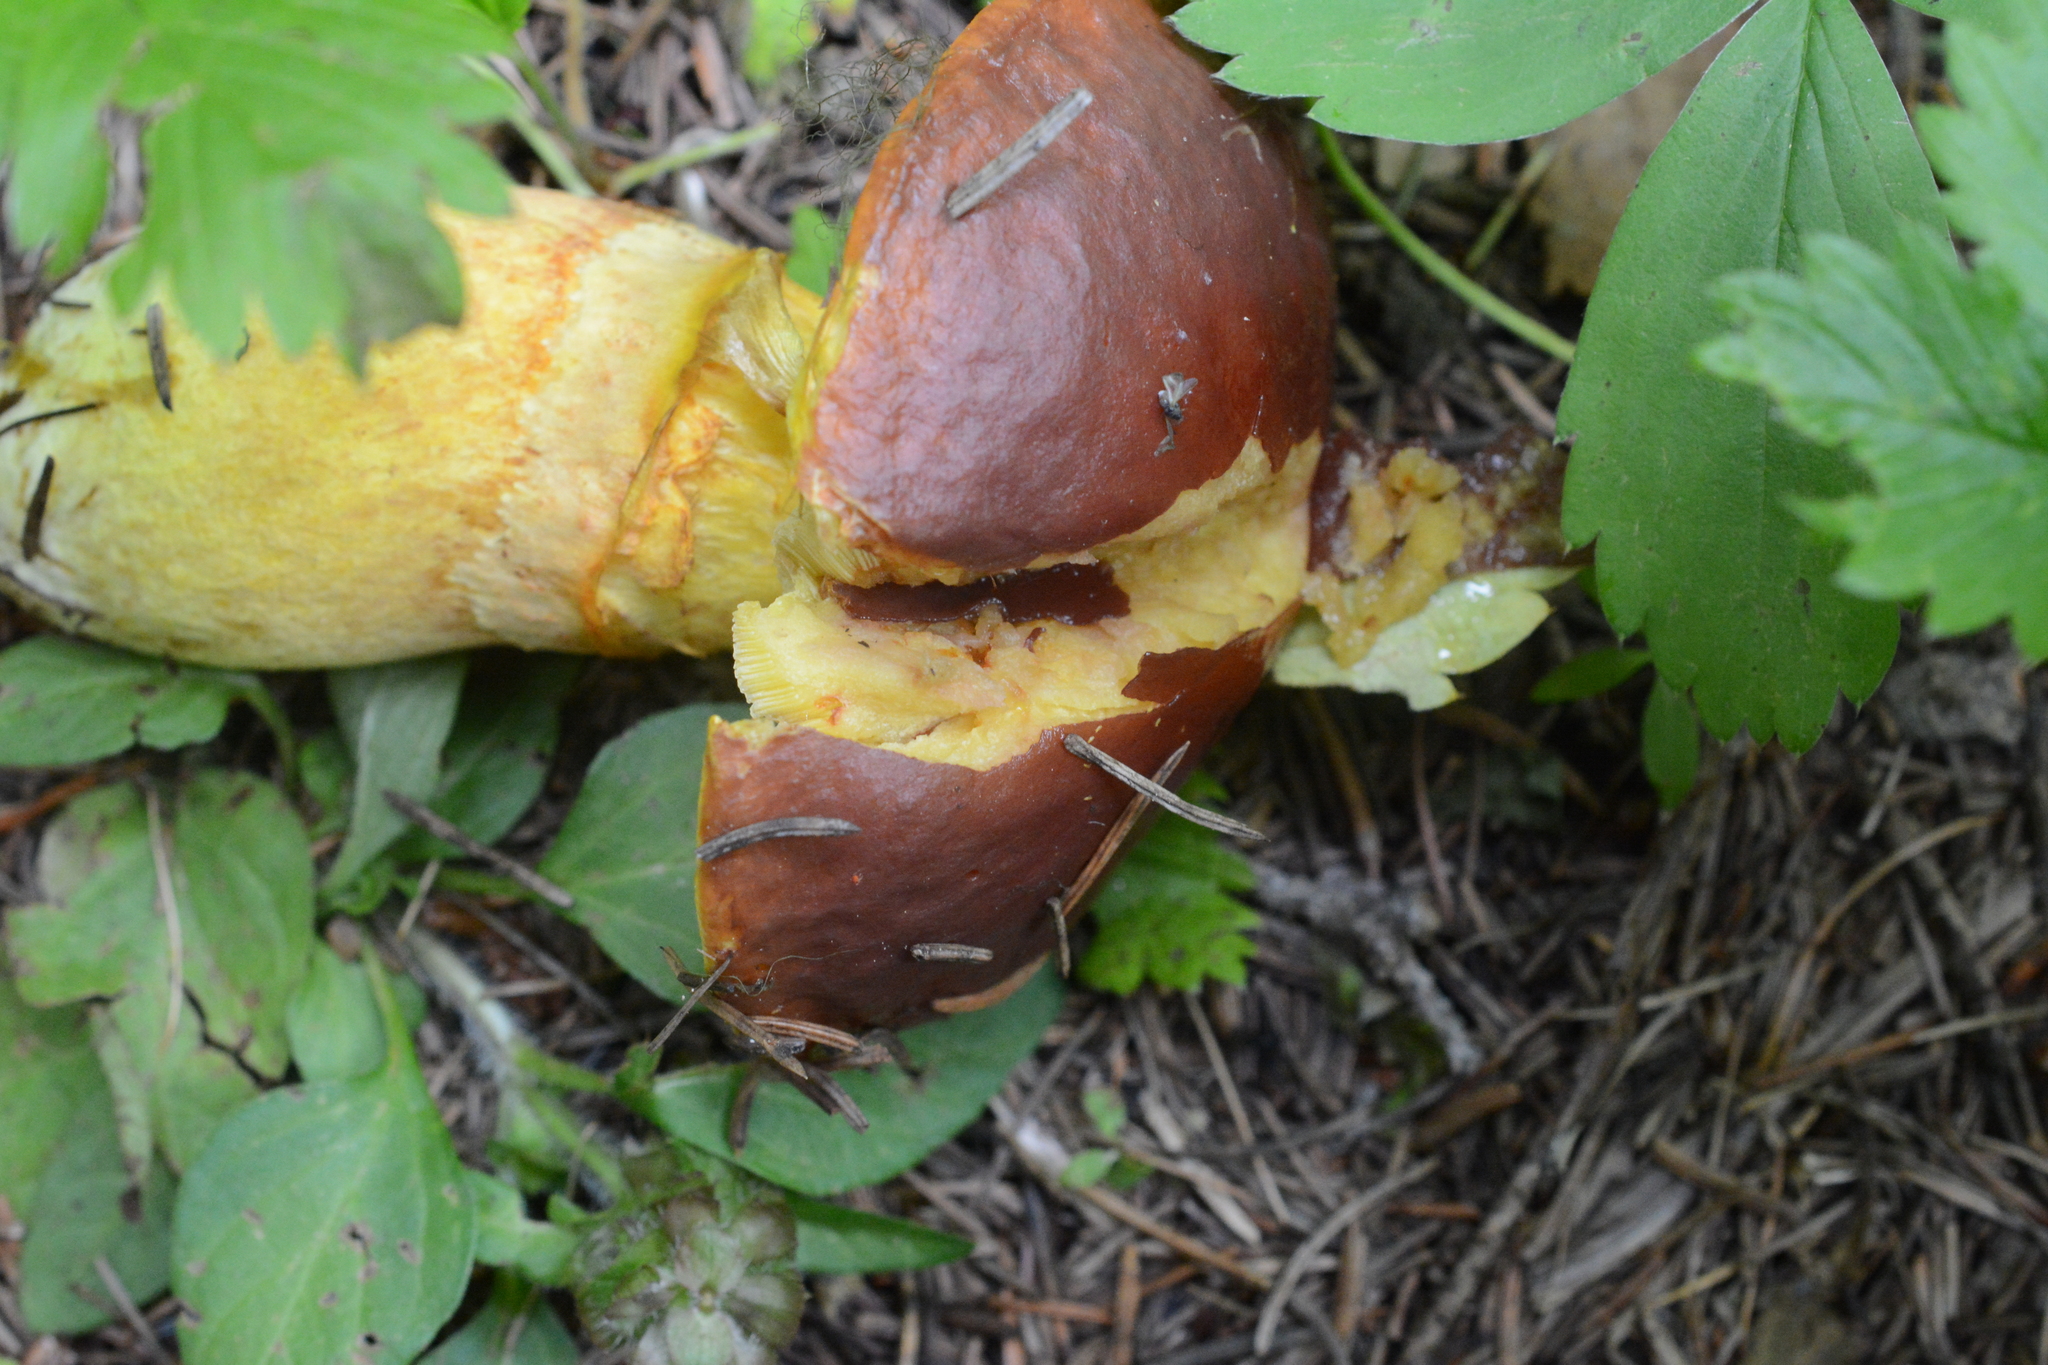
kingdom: Fungi
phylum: Basidiomycota
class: Agaricomycetes
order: Boletales
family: Suillaceae
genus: Suillus
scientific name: Suillus grevillei
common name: Larch bolete
